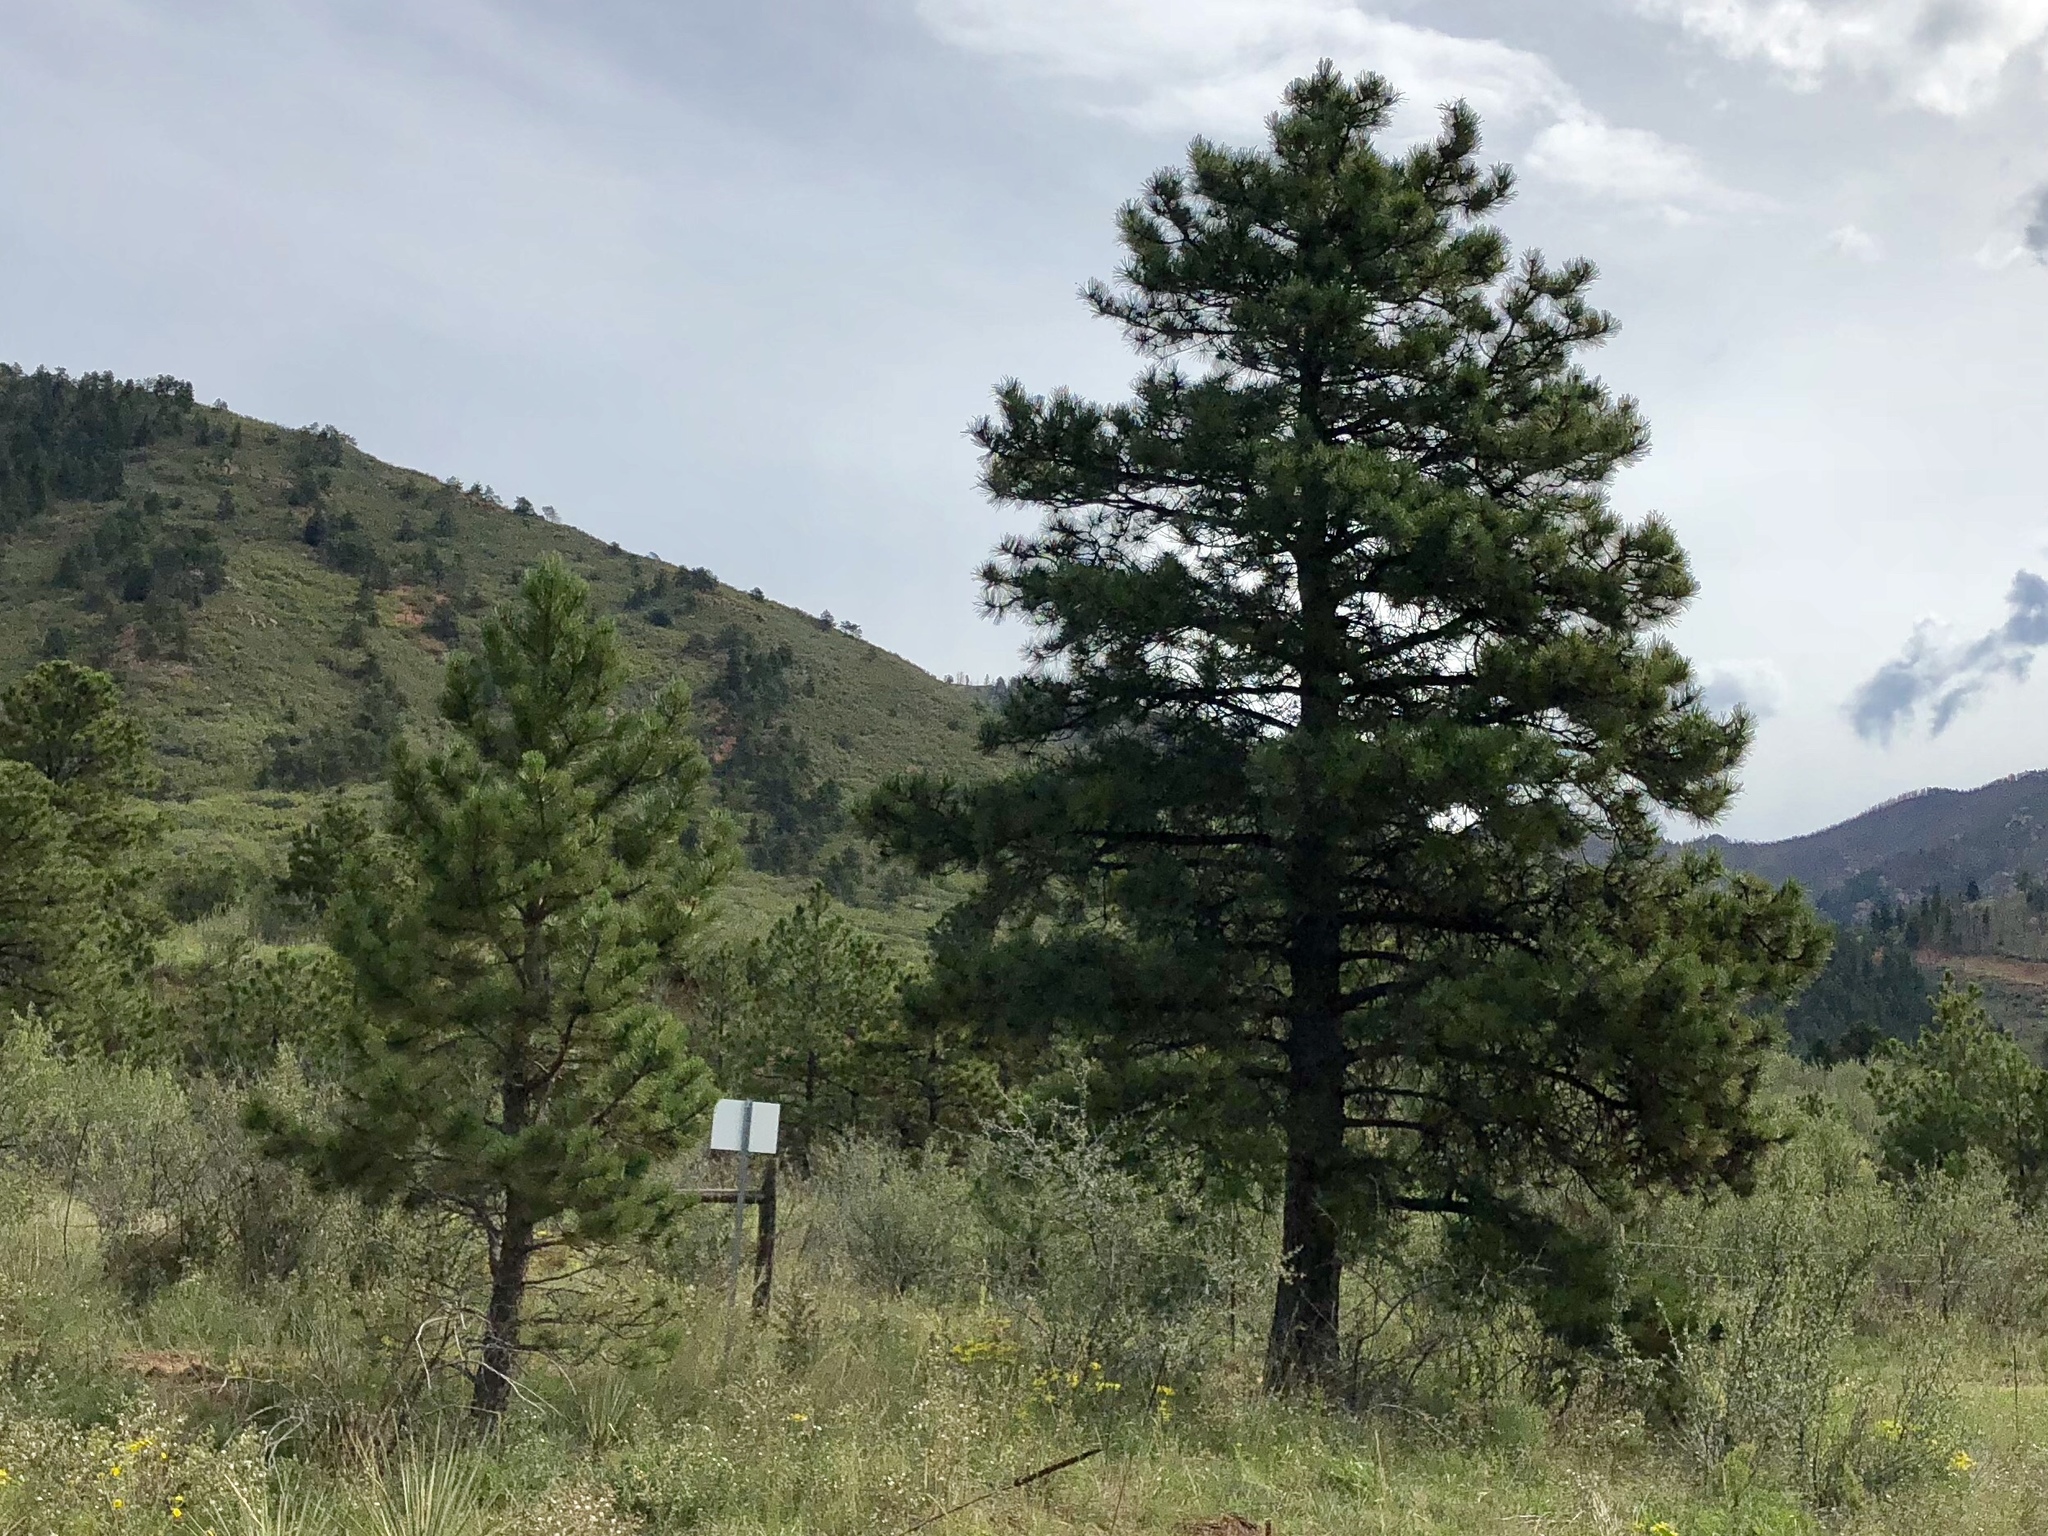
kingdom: Plantae
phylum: Tracheophyta
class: Pinopsida
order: Pinales
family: Pinaceae
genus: Pinus
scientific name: Pinus ponderosa
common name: Western yellow-pine
